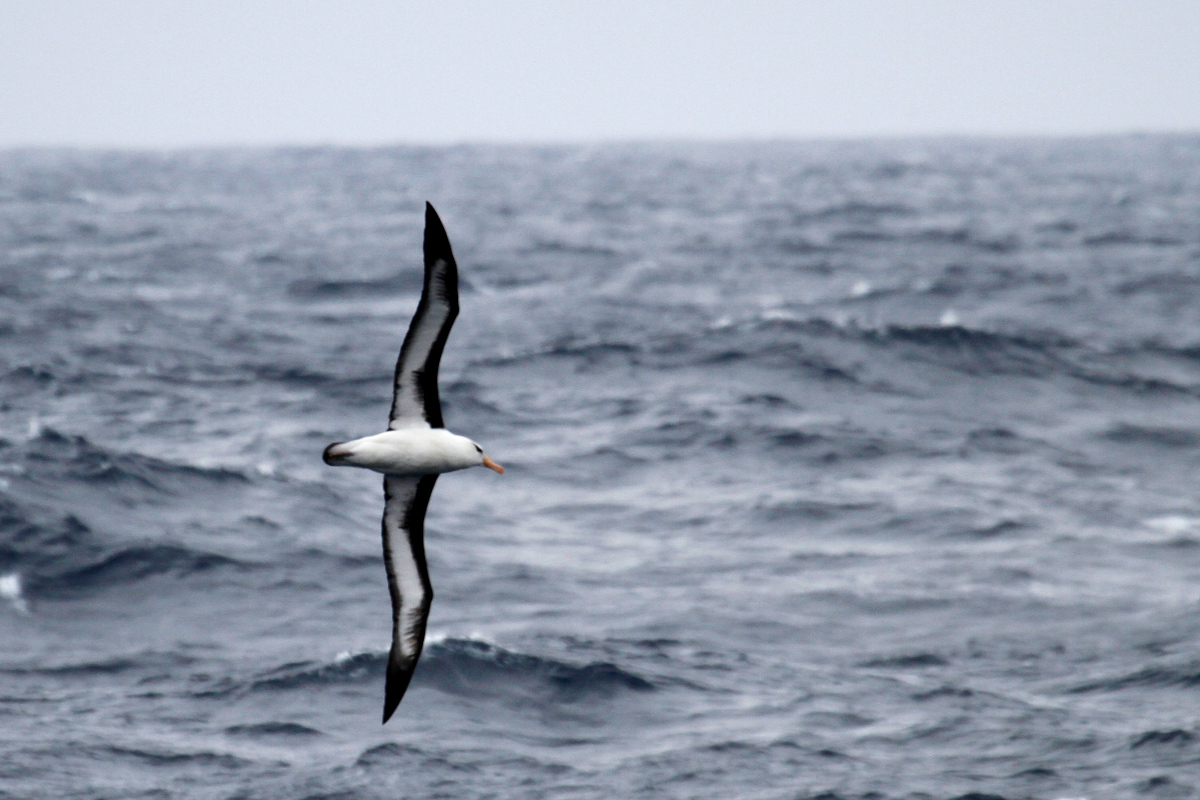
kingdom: Animalia
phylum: Chordata
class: Aves
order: Procellariiformes
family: Diomedeidae
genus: Thalassarche
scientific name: Thalassarche melanophris
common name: Black-browed albatross
